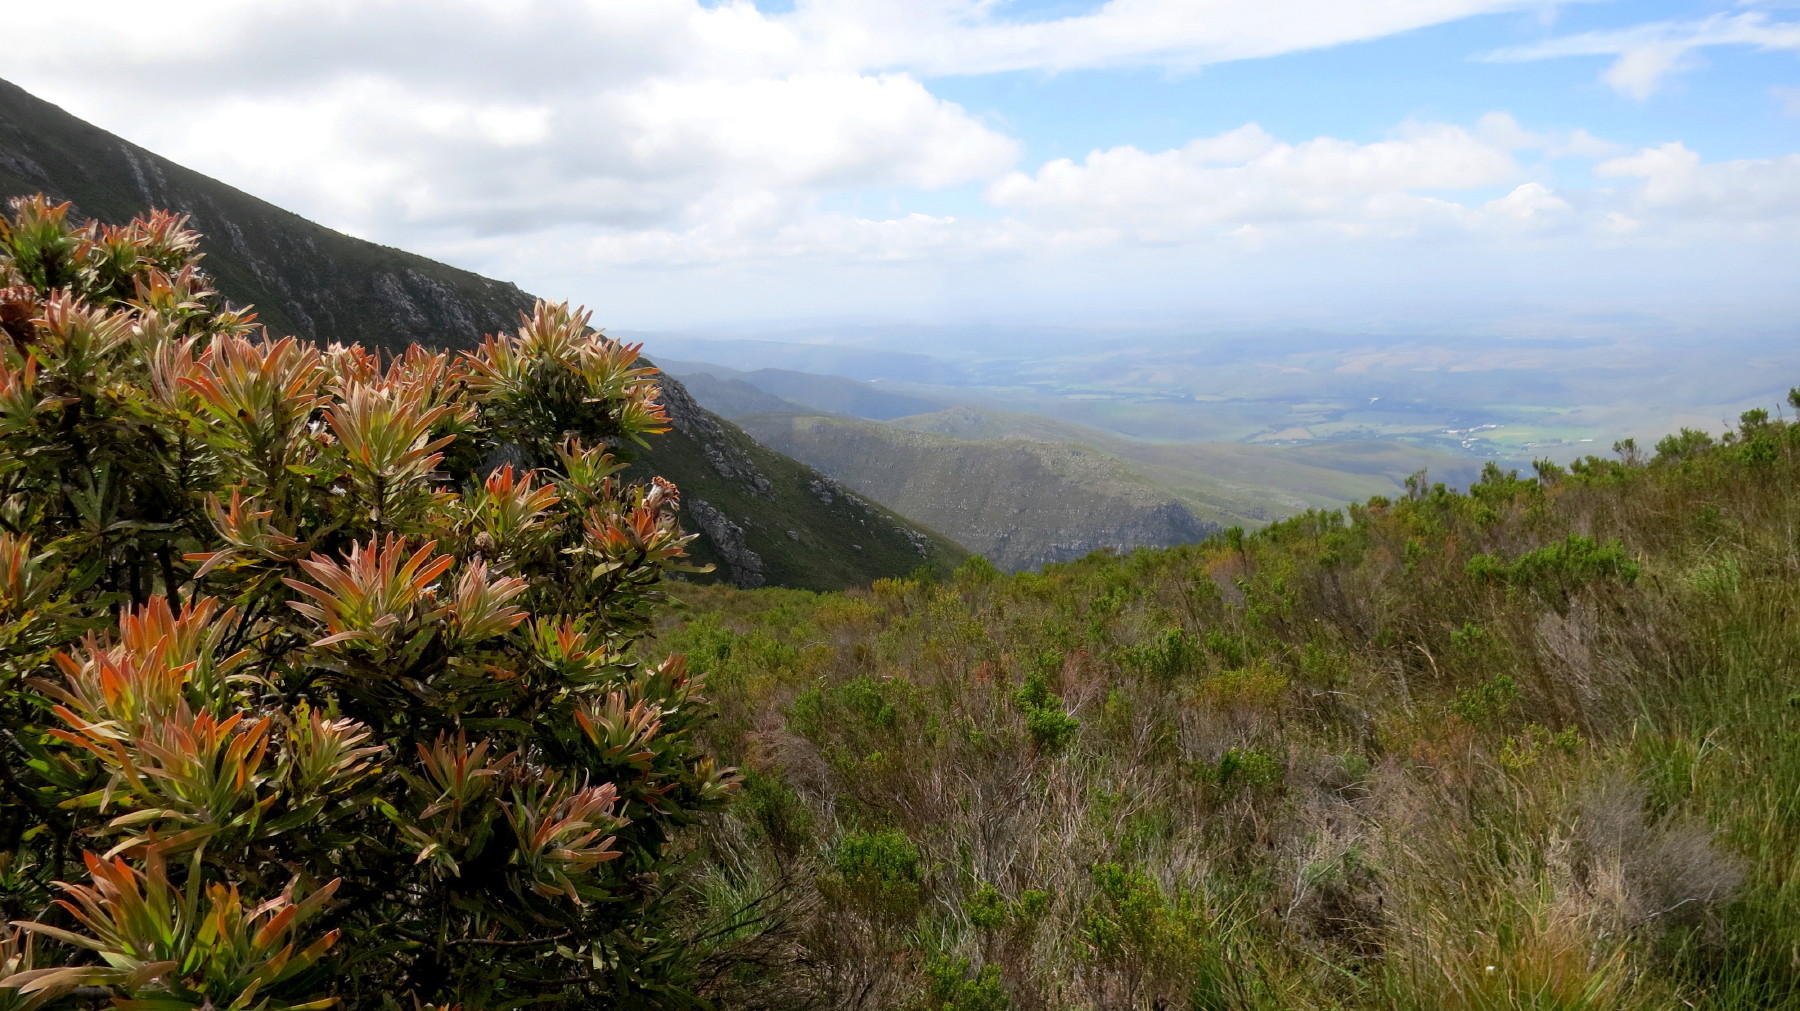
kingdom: Plantae
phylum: Tracheophyta
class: Magnoliopsida
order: Proteales
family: Proteaceae
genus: Protea
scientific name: Protea neriifolia
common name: Blue sugarbush
